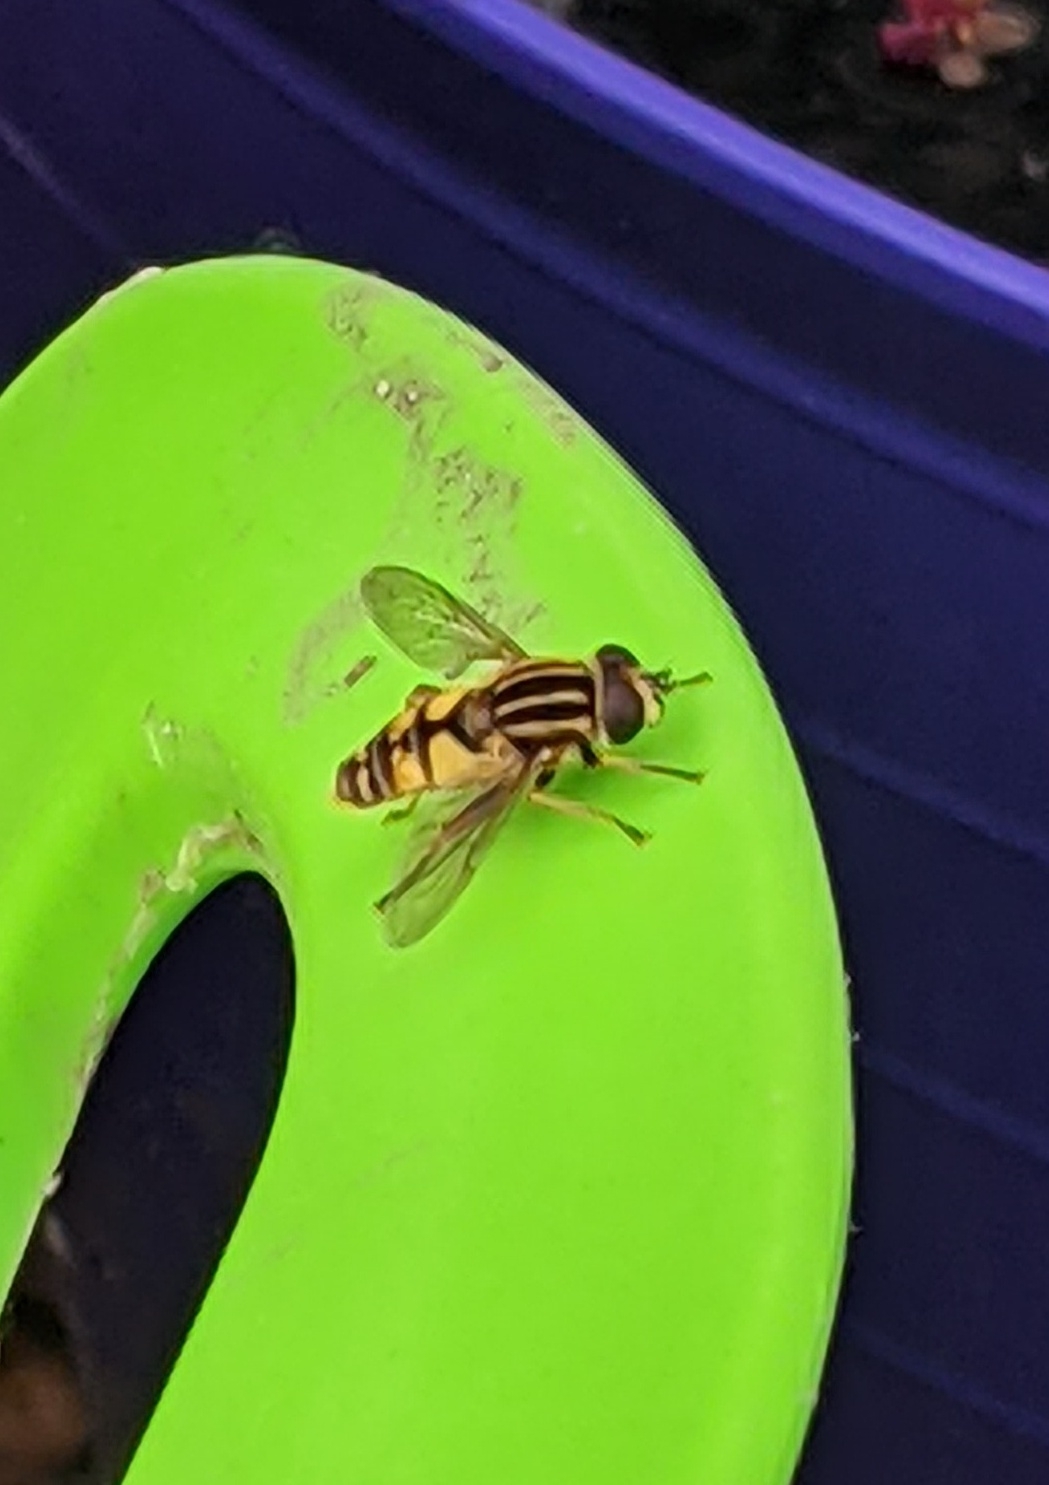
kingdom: Animalia
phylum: Arthropoda
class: Insecta
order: Diptera
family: Syrphidae
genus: Helophilus
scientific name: Helophilus pendulus
